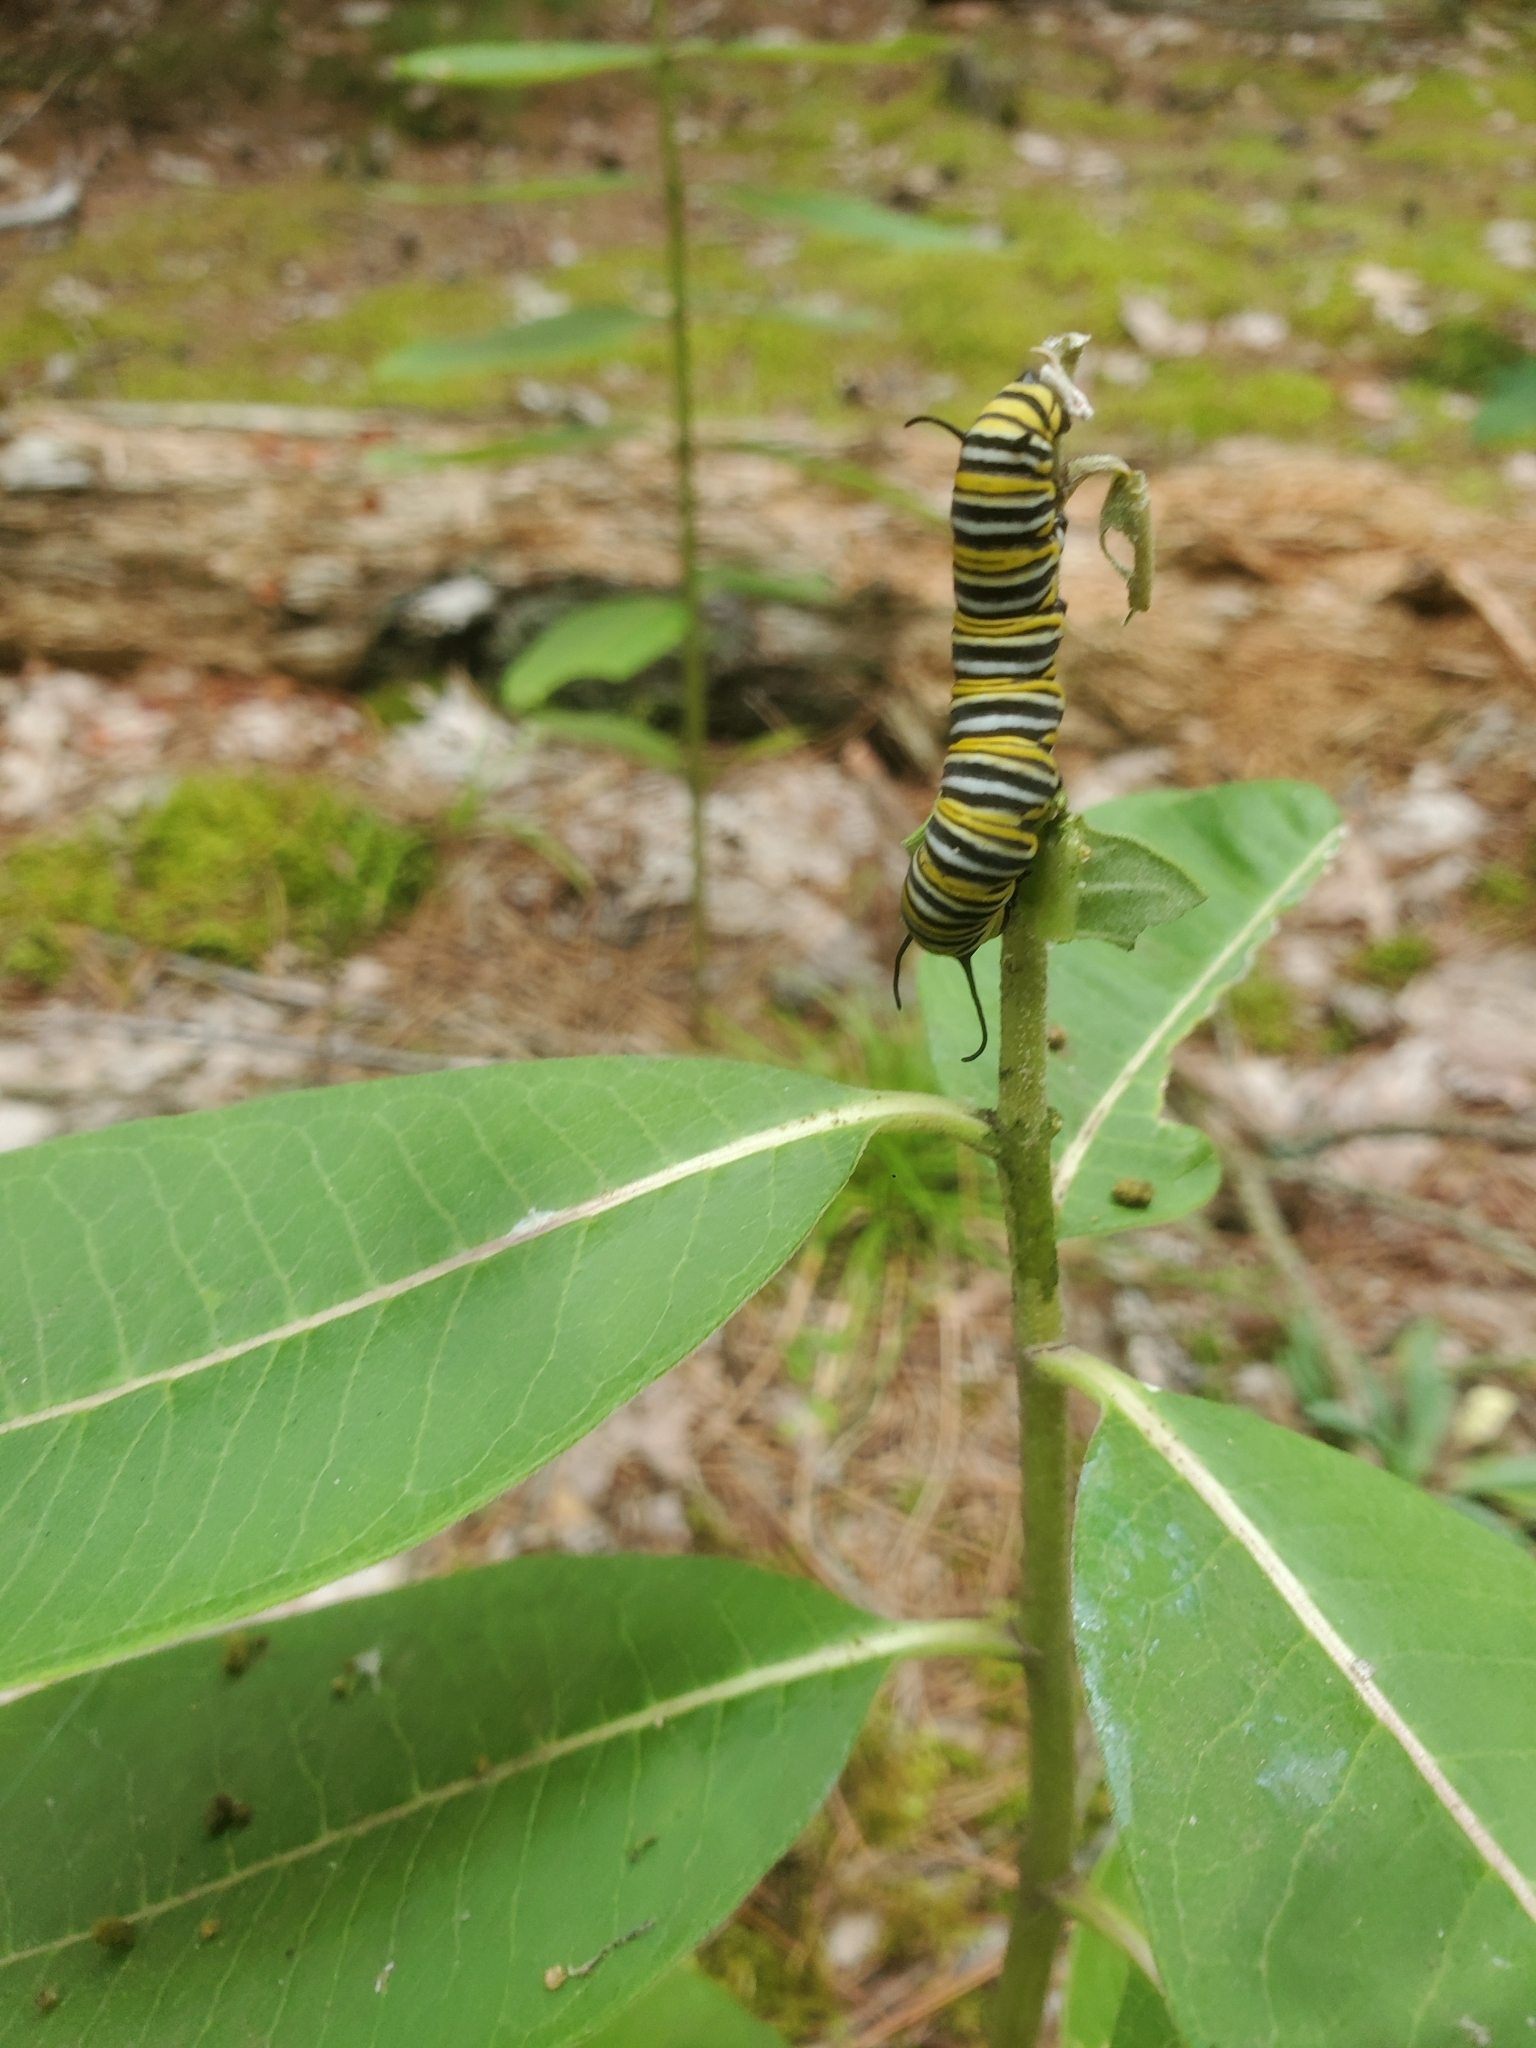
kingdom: Animalia
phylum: Arthropoda
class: Insecta
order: Lepidoptera
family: Nymphalidae
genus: Danaus
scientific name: Danaus plexippus
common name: Monarch
